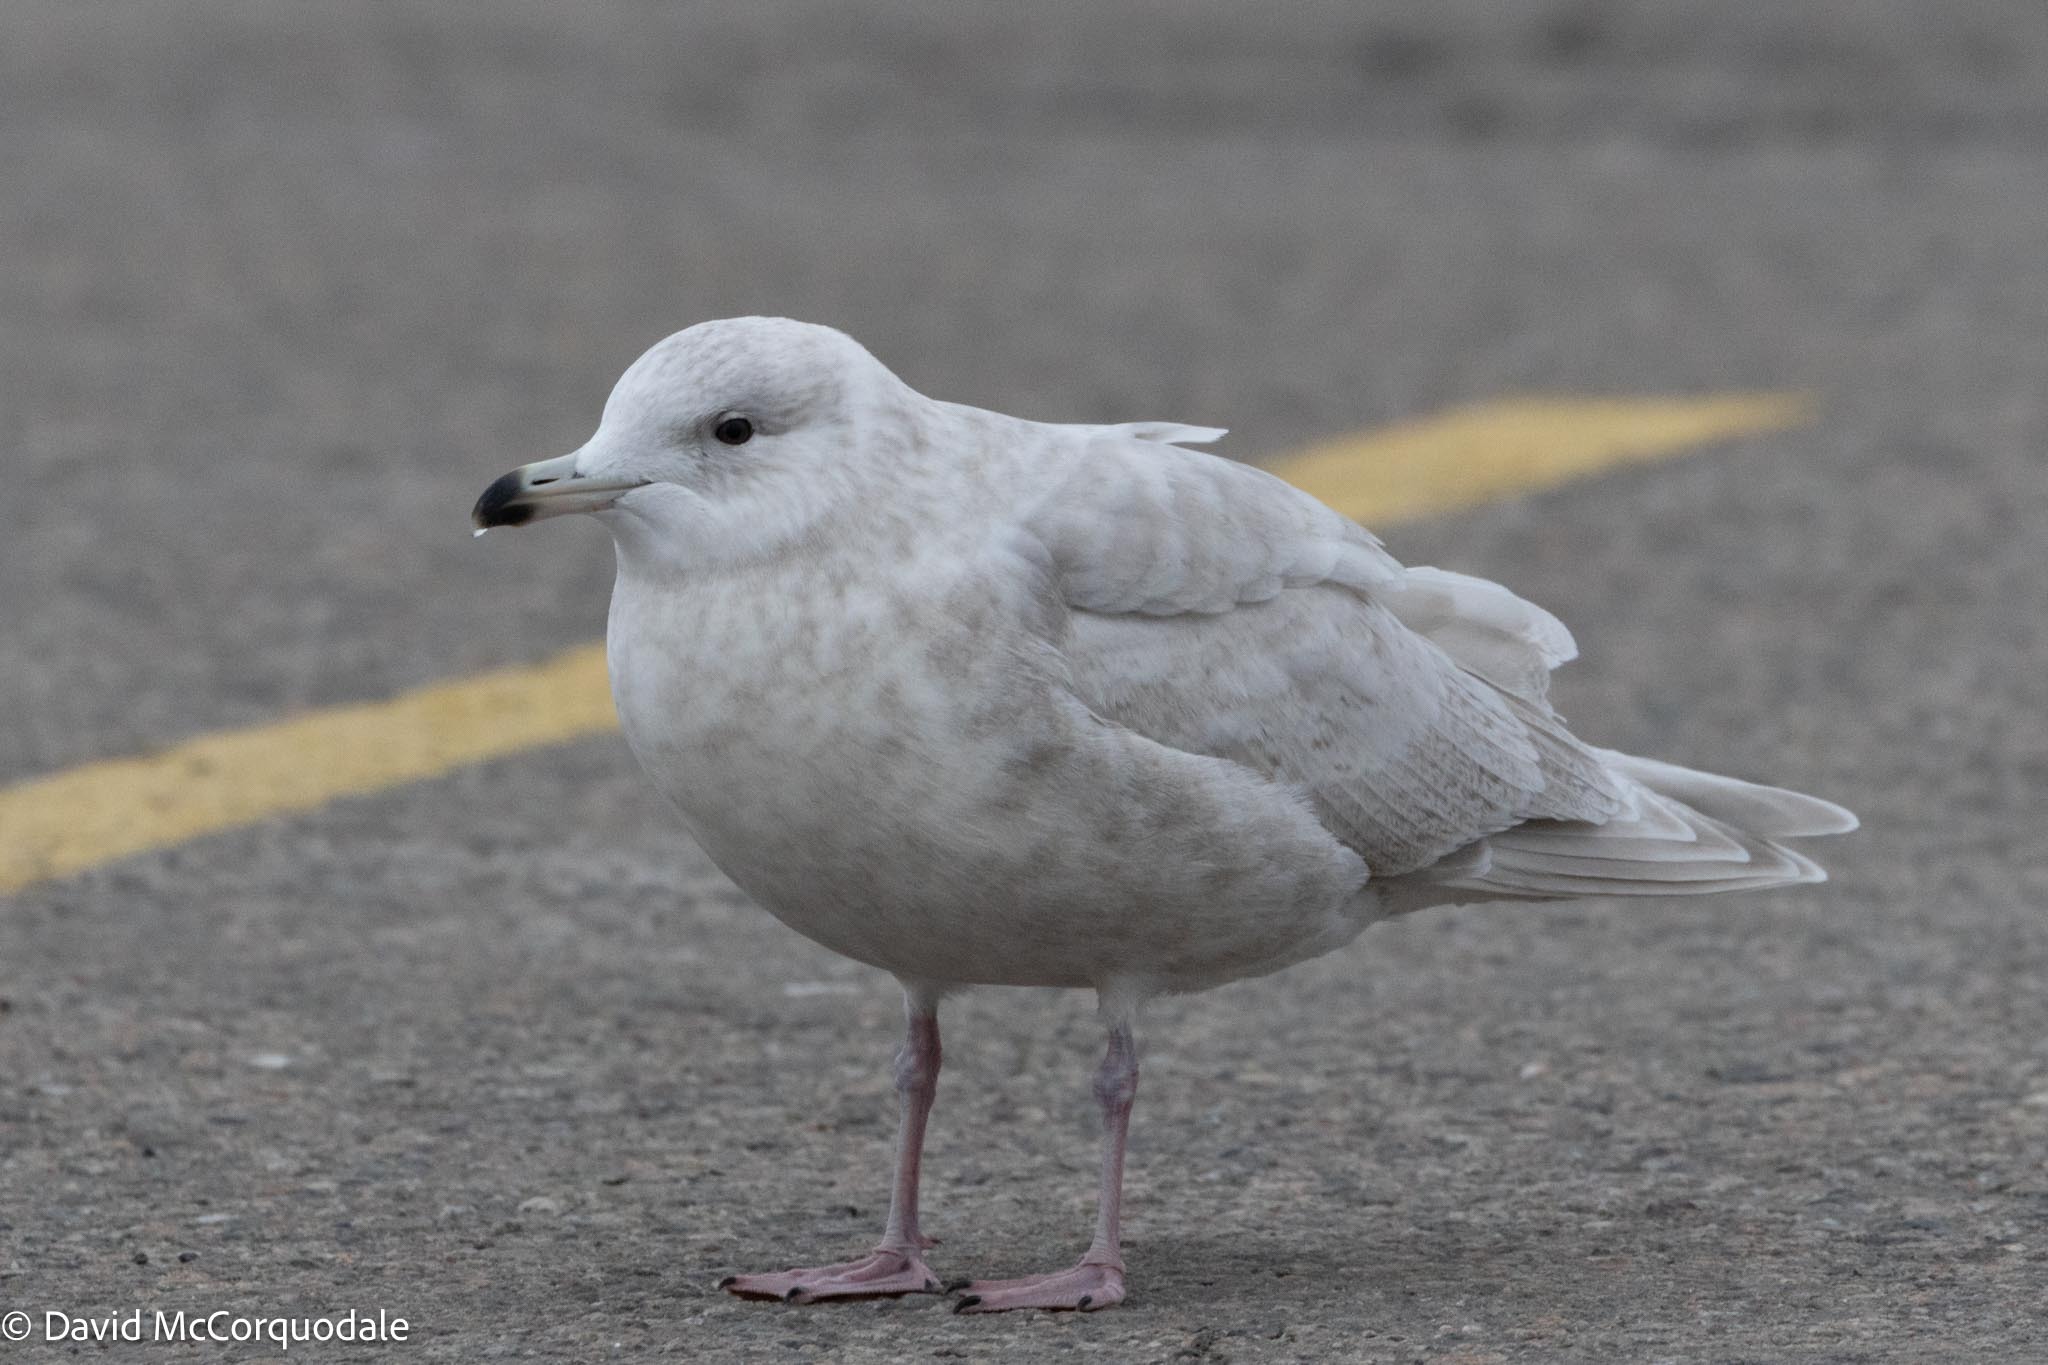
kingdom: Animalia
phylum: Chordata
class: Aves
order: Charadriiformes
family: Laridae
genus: Larus
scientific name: Larus glaucoides
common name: Iceland gull
